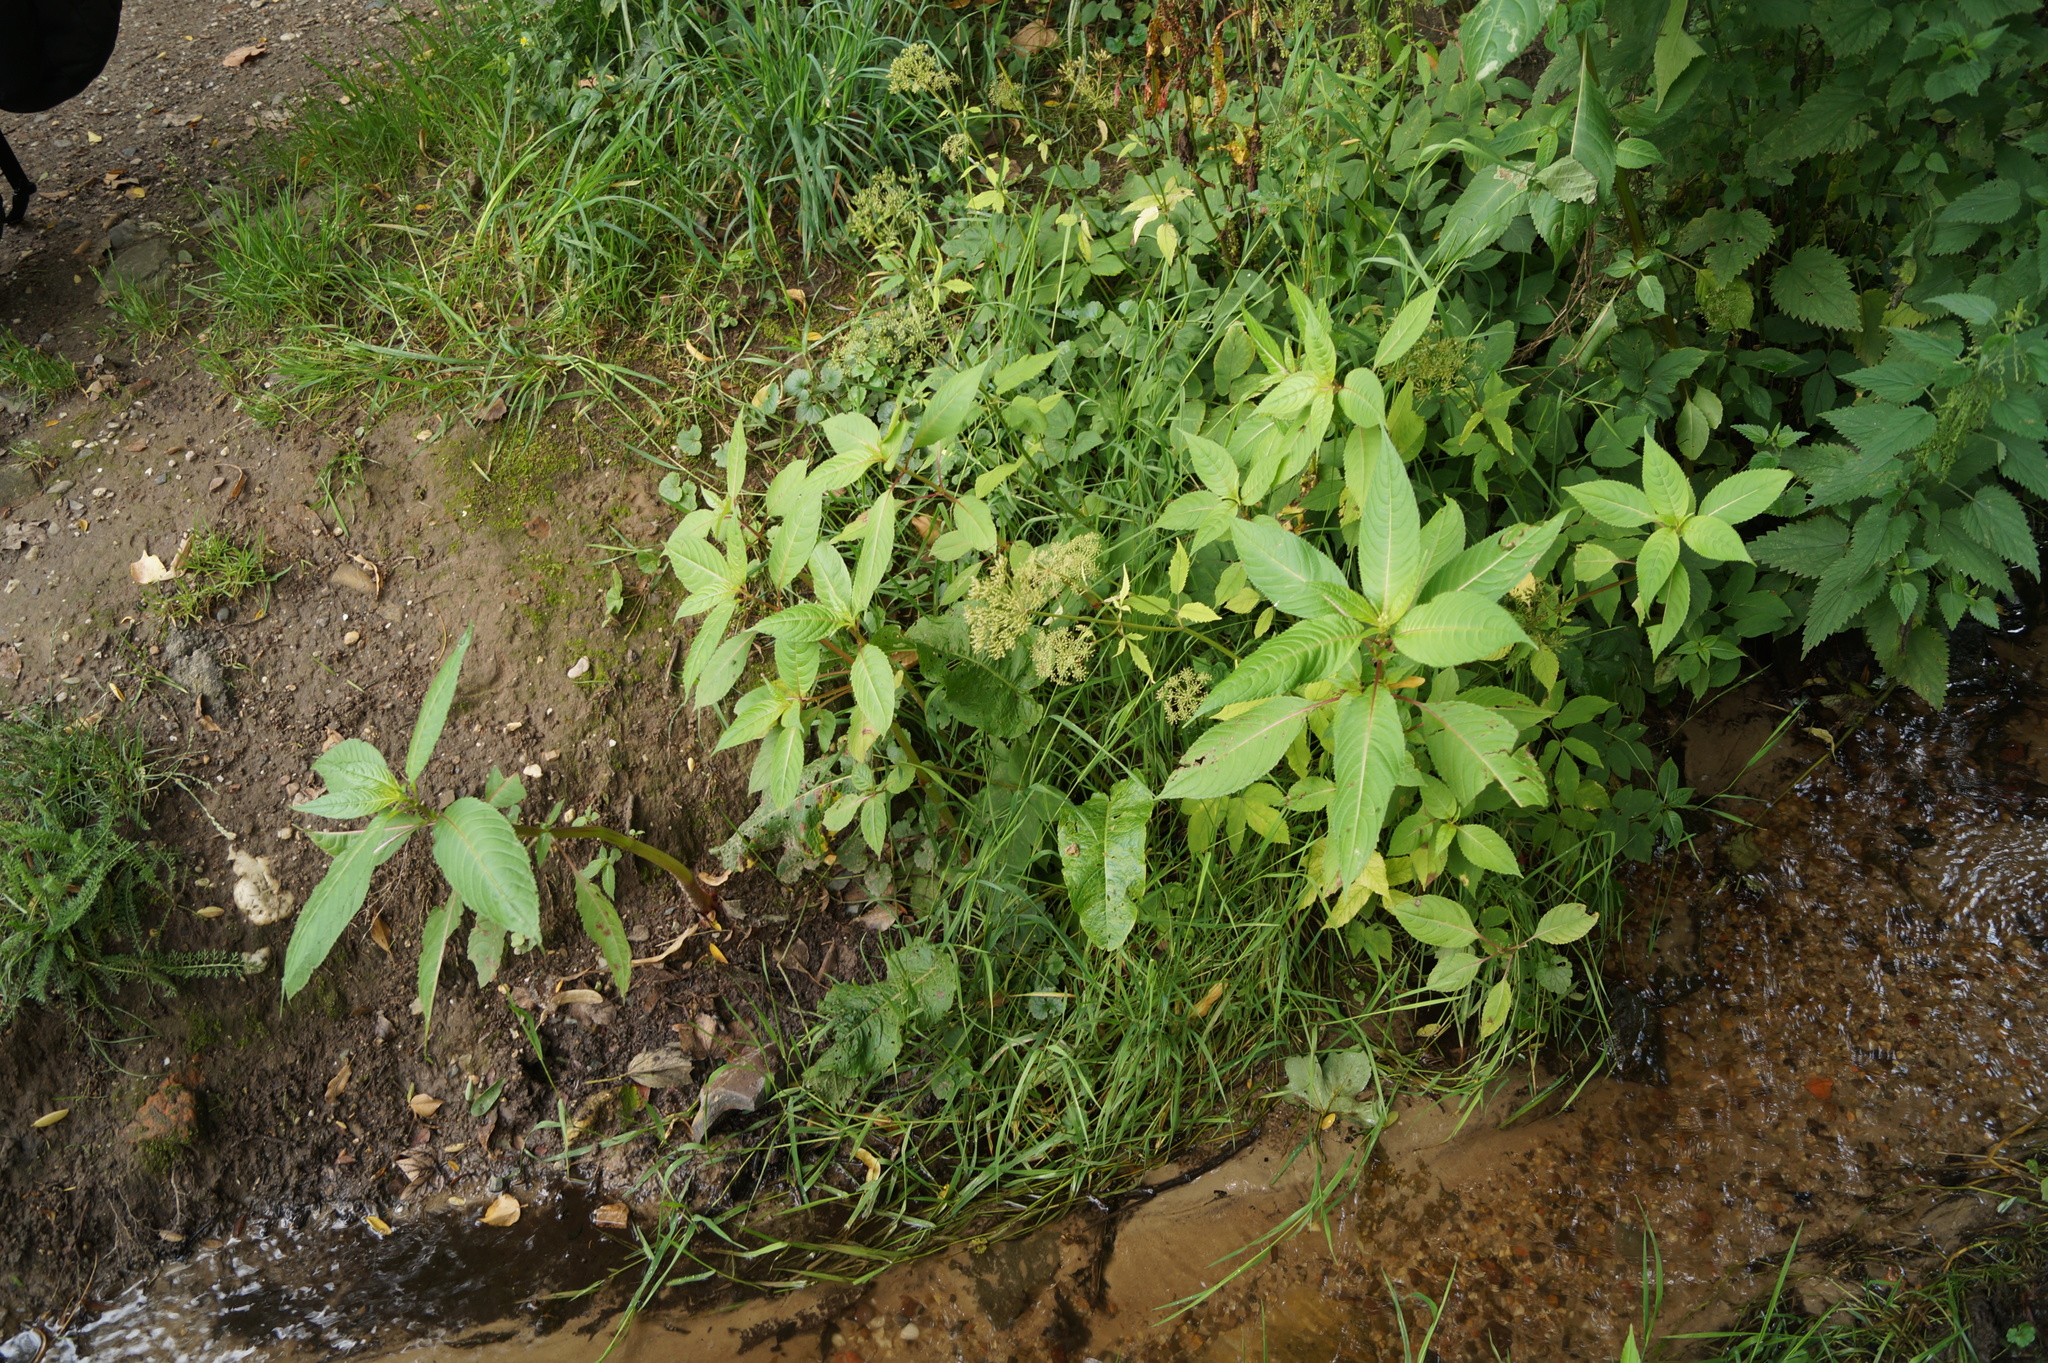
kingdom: Plantae
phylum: Tracheophyta
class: Magnoliopsida
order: Ericales
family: Balsaminaceae
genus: Impatiens
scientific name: Impatiens glandulifera
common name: Himalayan balsam
